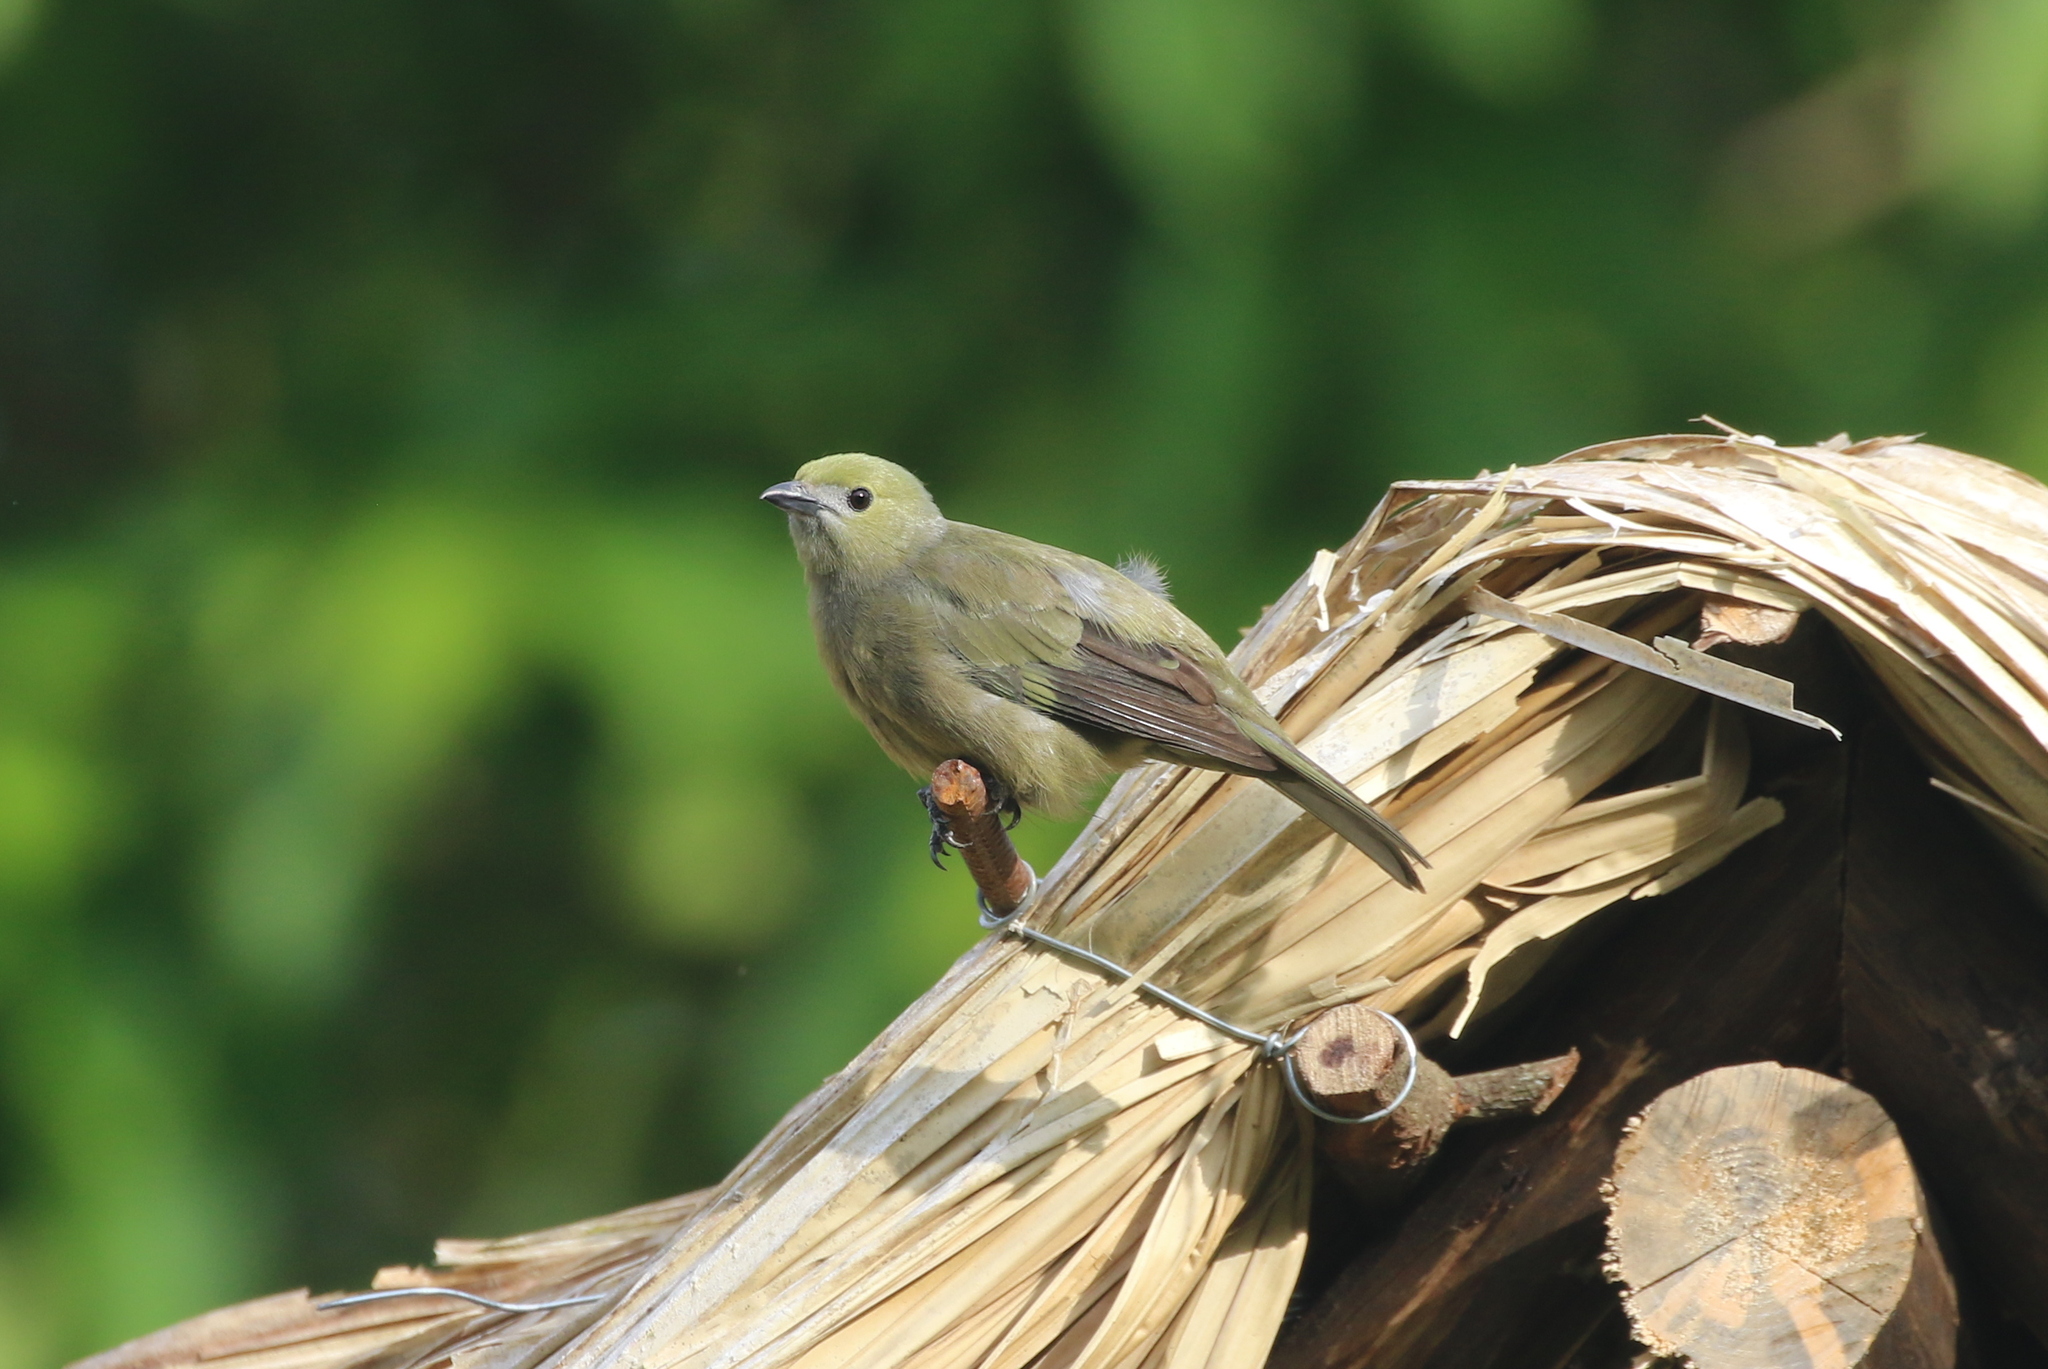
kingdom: Animalia
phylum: Chordata
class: Aves
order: Passeriformes
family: Thraupidae
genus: Thraupis
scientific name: Thraupis palmarum
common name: Palm tanager
